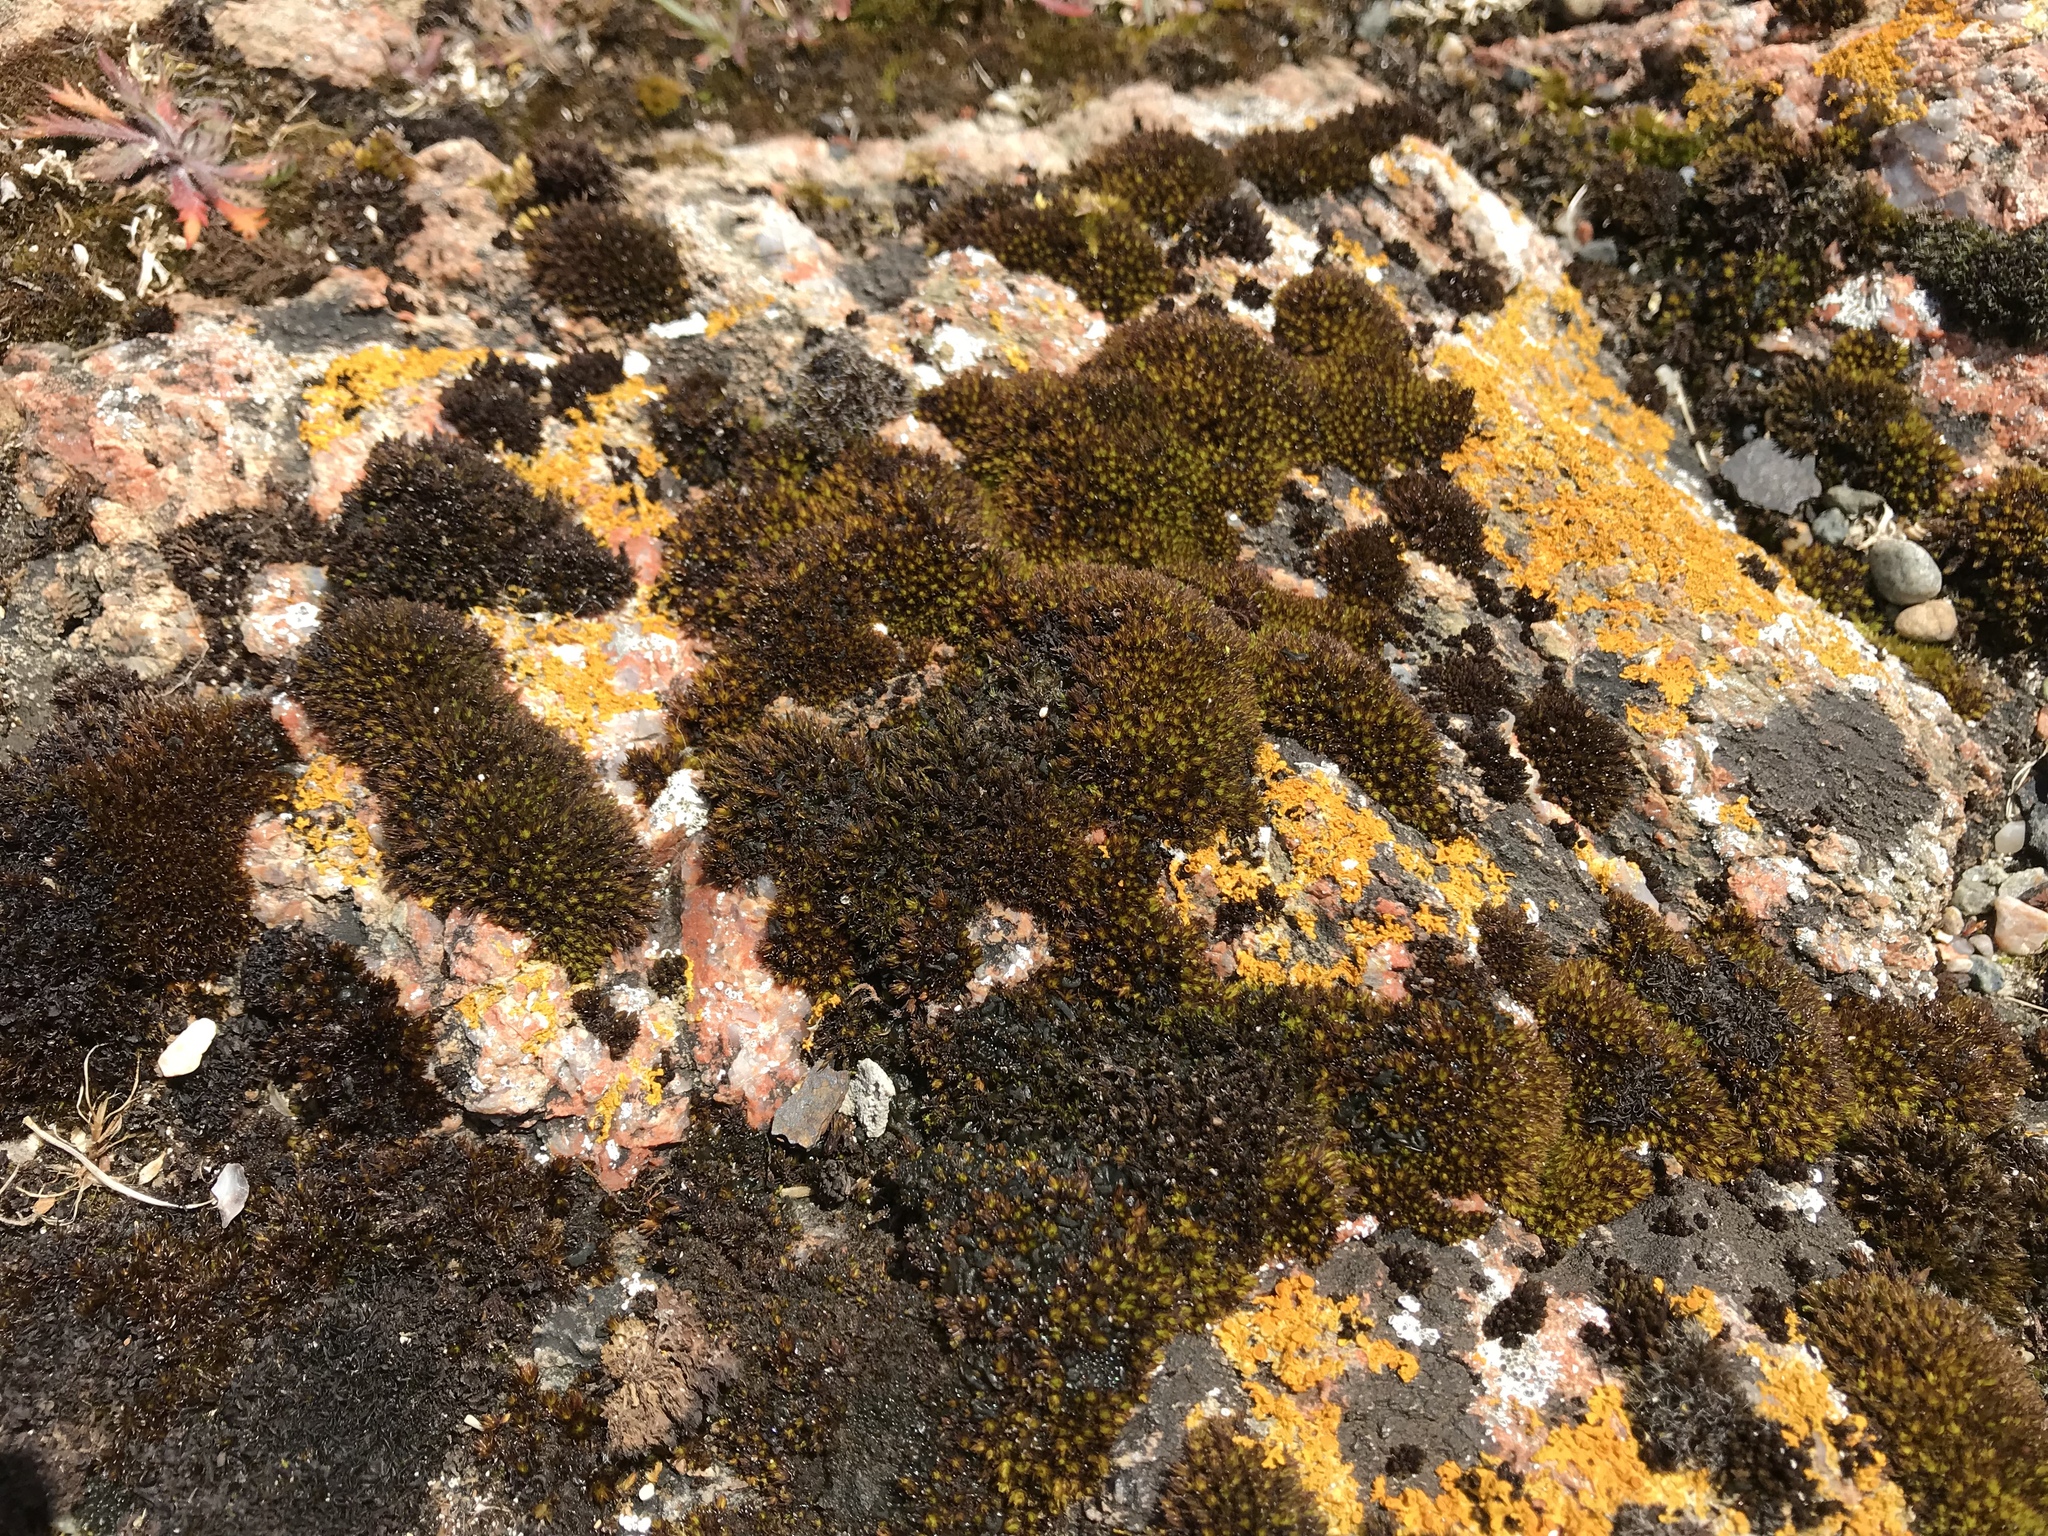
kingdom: Plantae
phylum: Bryophyta
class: Bryopsida
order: Grimmiales
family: Grimmiaceae
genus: Schistidium
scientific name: Schistidium maritimum
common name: Seaside bloom moss
